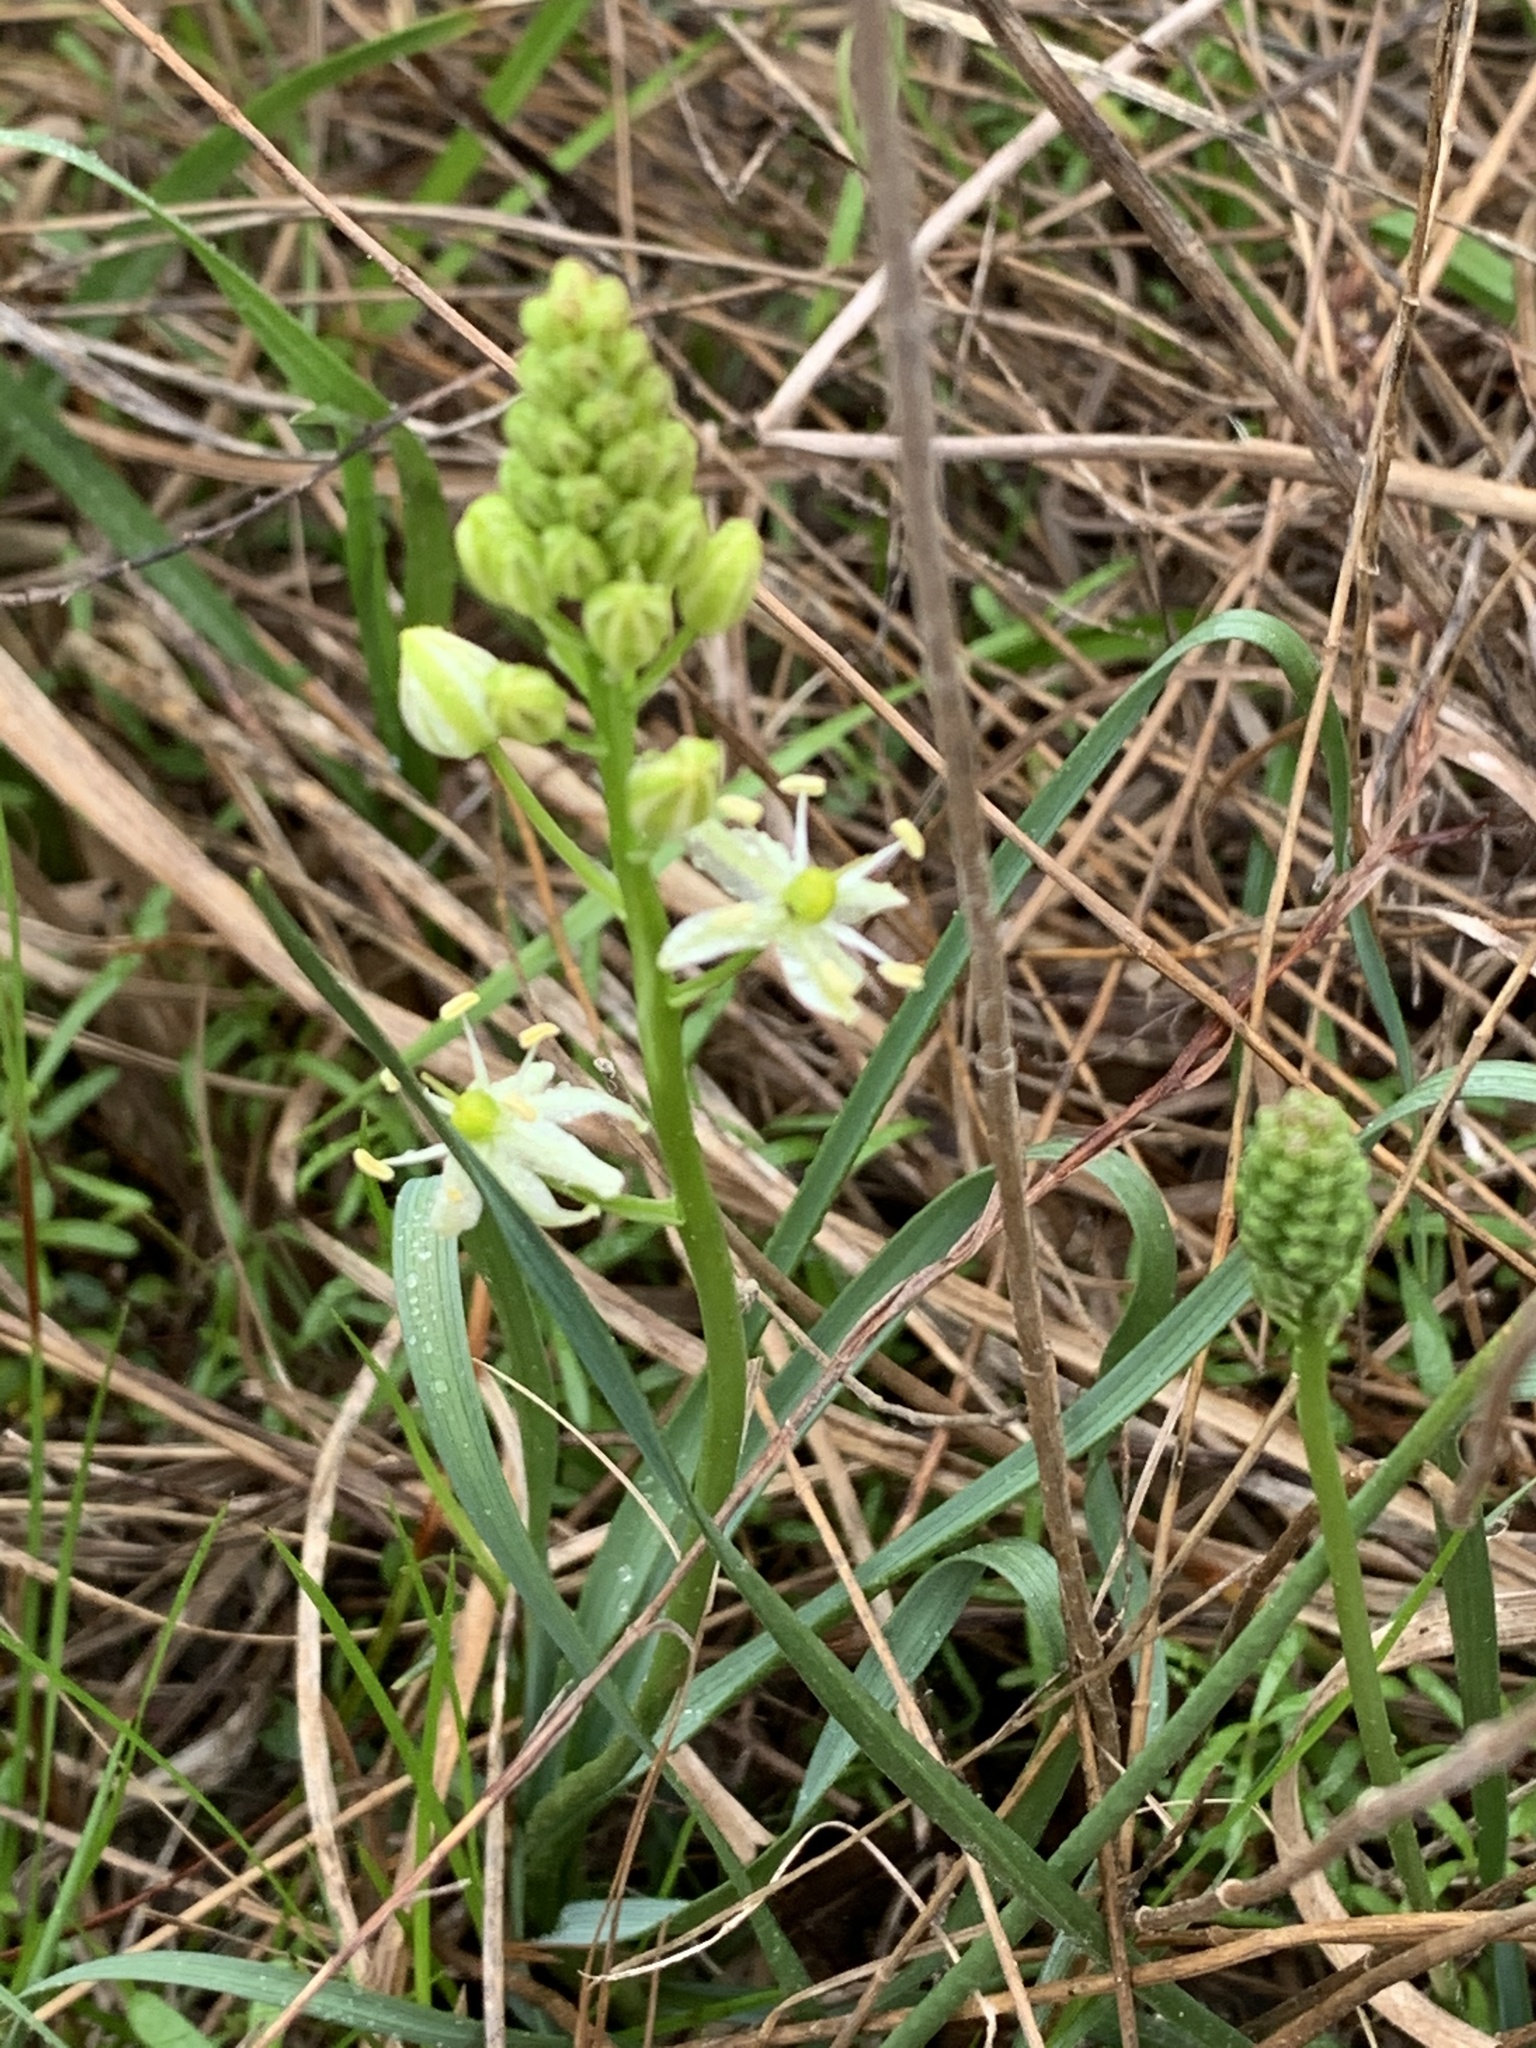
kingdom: Plantae
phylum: Tracheophyta
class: Liliopsida
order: Asparagales
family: Asparagaceae
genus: Schoenolirion
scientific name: Schoenolirion wrightii
